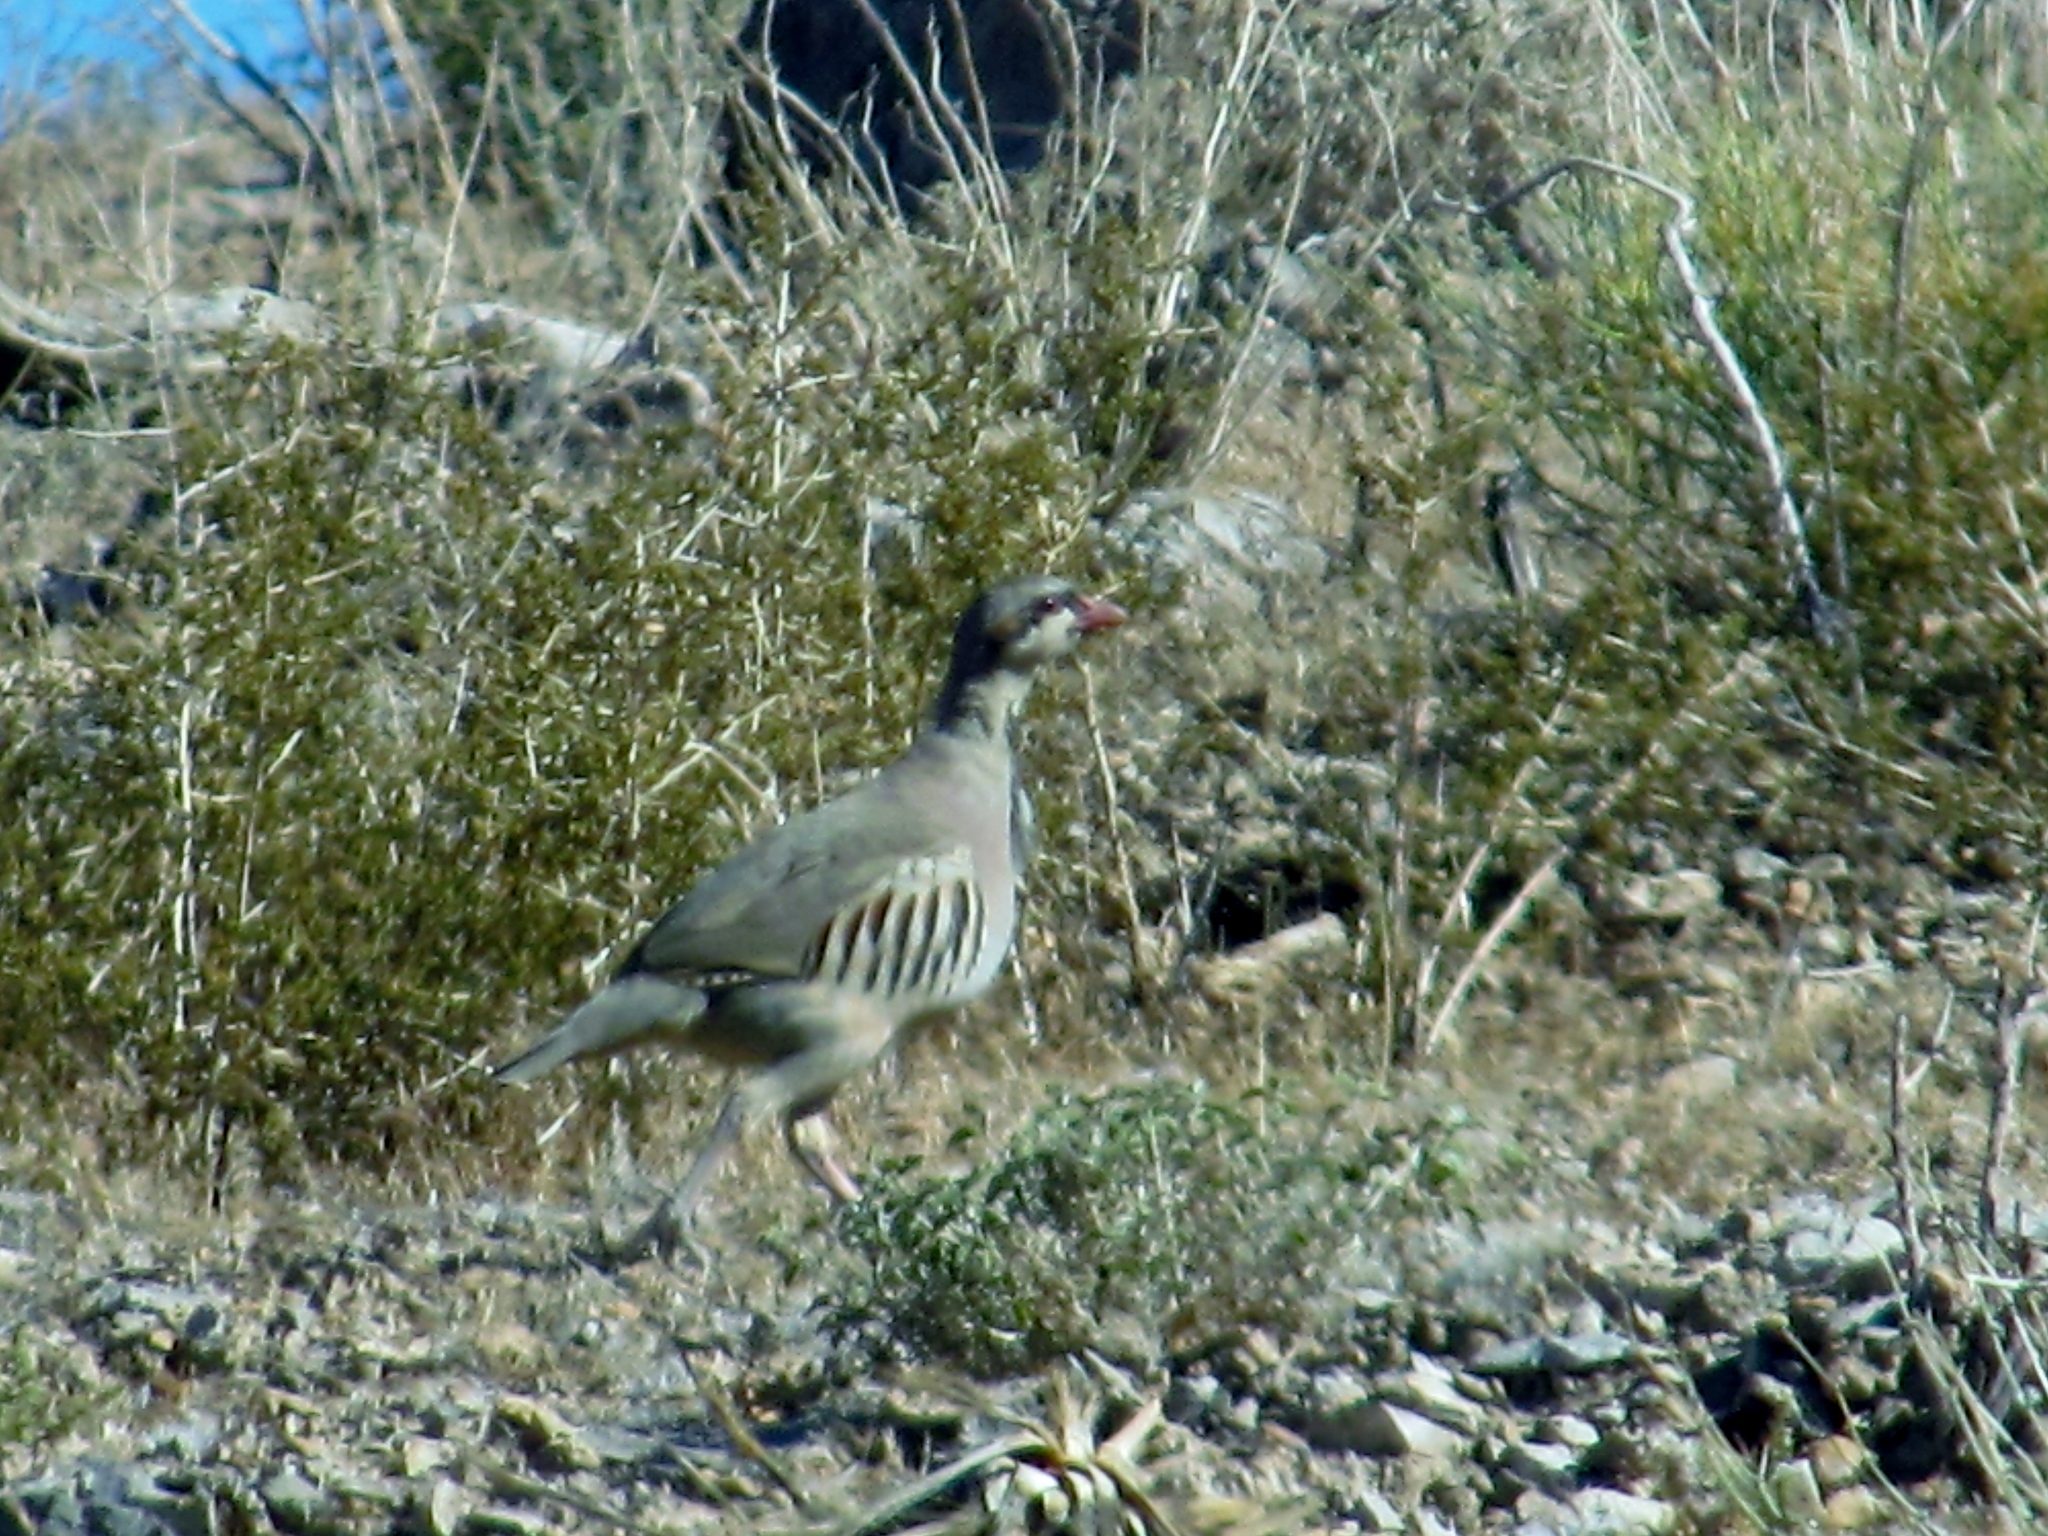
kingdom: Animalia
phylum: Chordata
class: Aves
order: Galliformes
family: Phasianidae
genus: Alectoris
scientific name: Alectoris chukar
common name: Chukar
